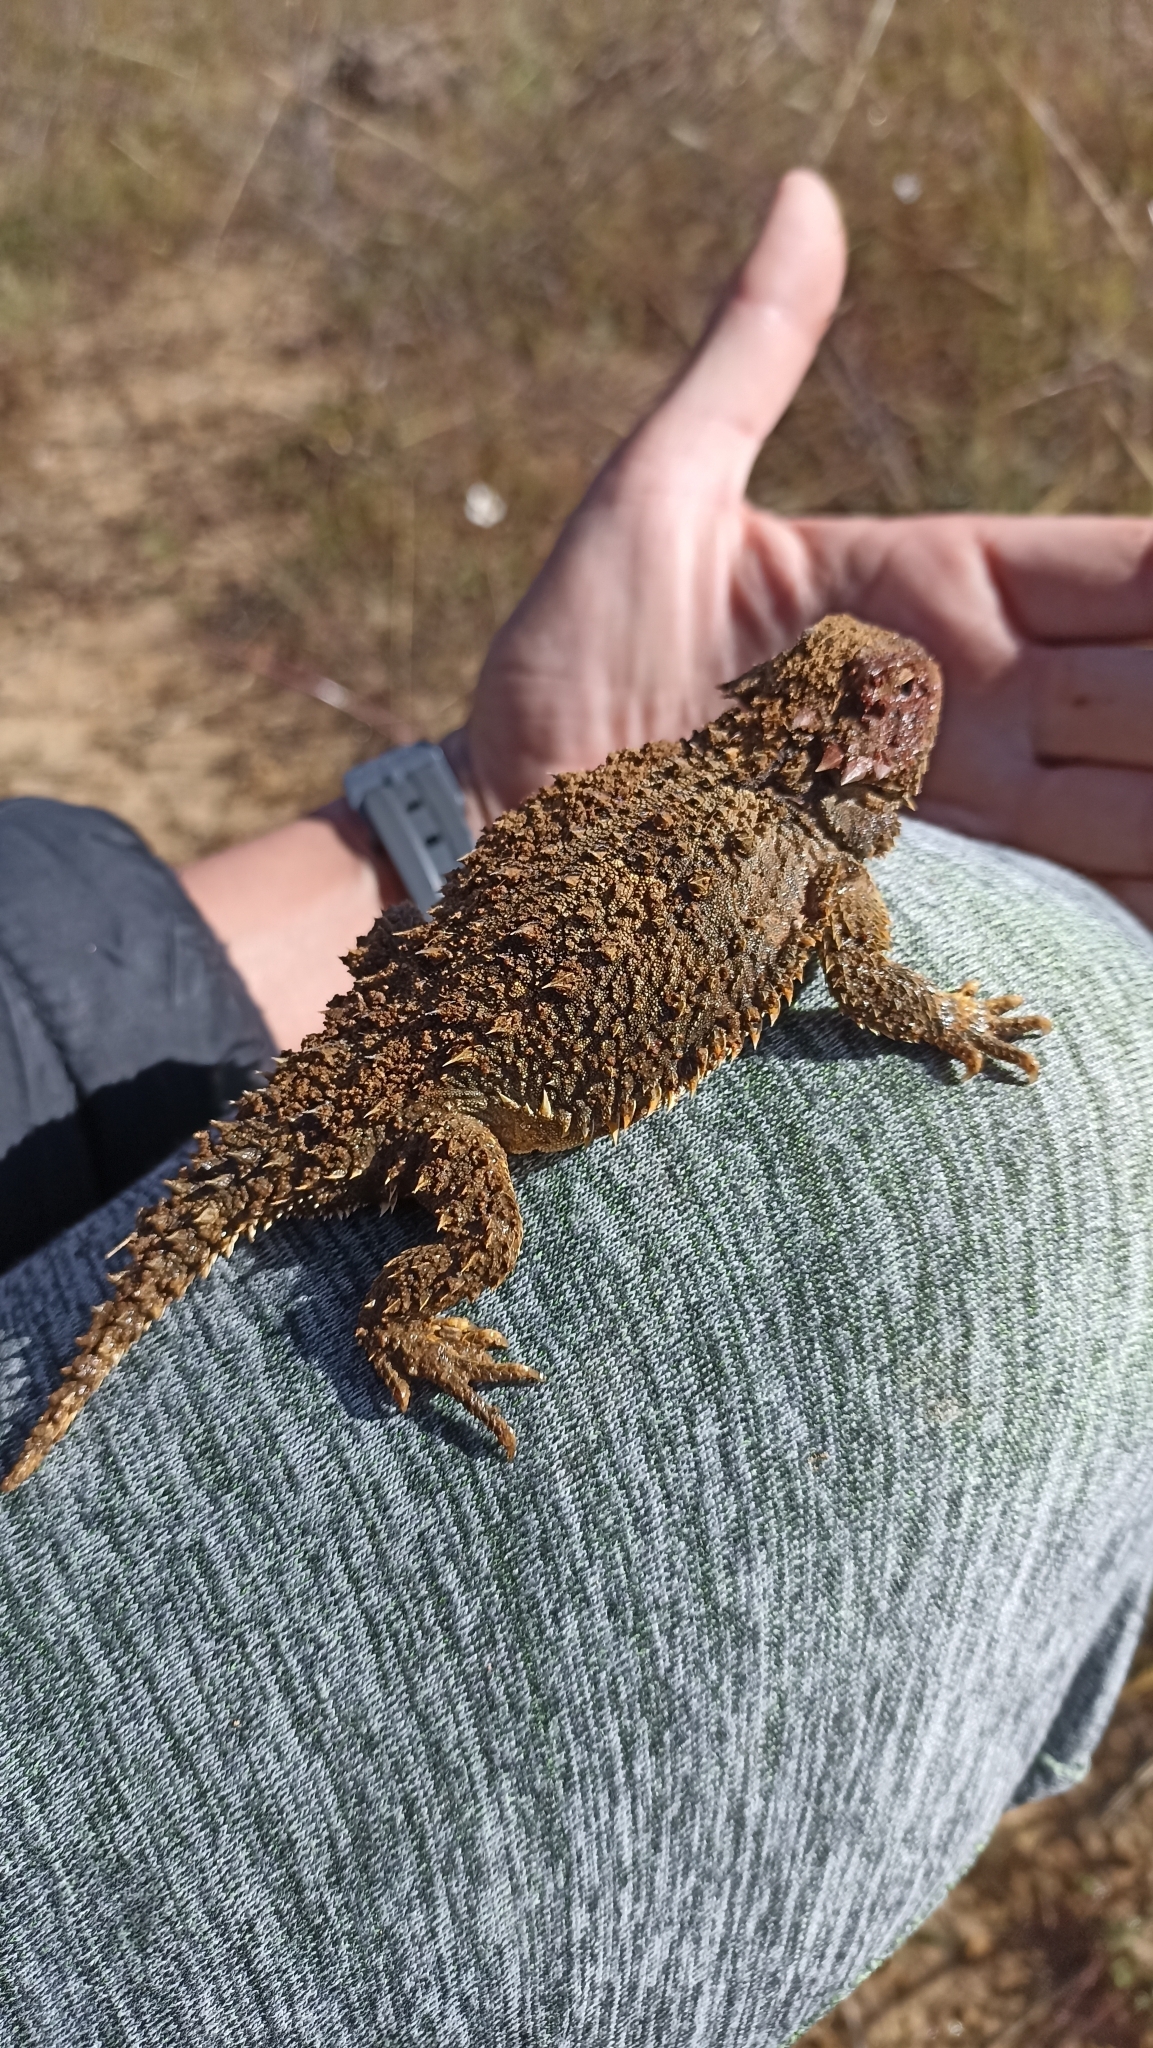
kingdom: Animalia
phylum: Chordata
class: Squamata
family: Phrynosomatidae
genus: Phrynosoma
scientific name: Phrynosoma orbiculare
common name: Mountain horned lizard
